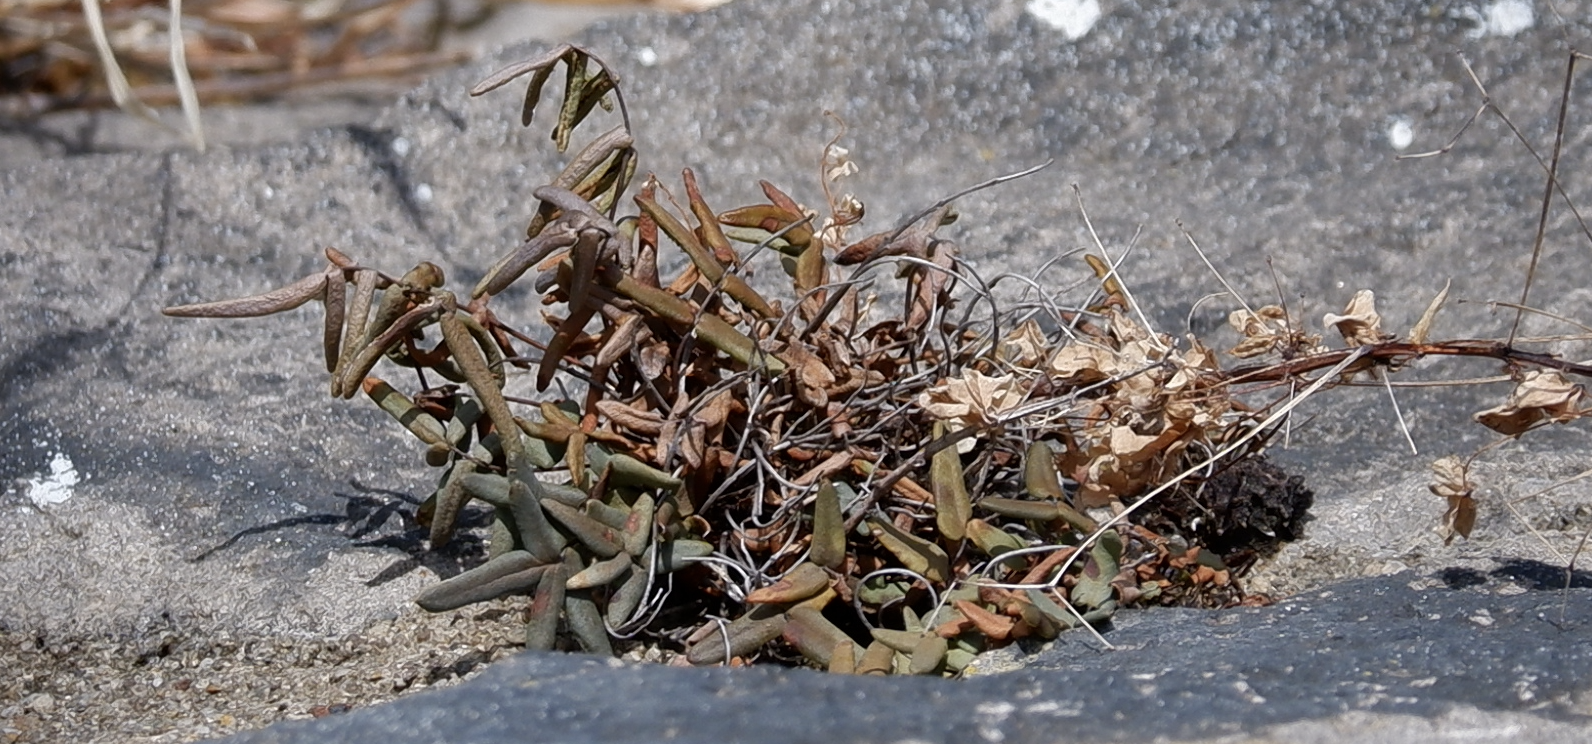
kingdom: Plantae
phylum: Tracheophyta
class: Polypodiopsida
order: Polypodiales
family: Pteridaceae
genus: Pellaea
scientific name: Pellaea glabella
